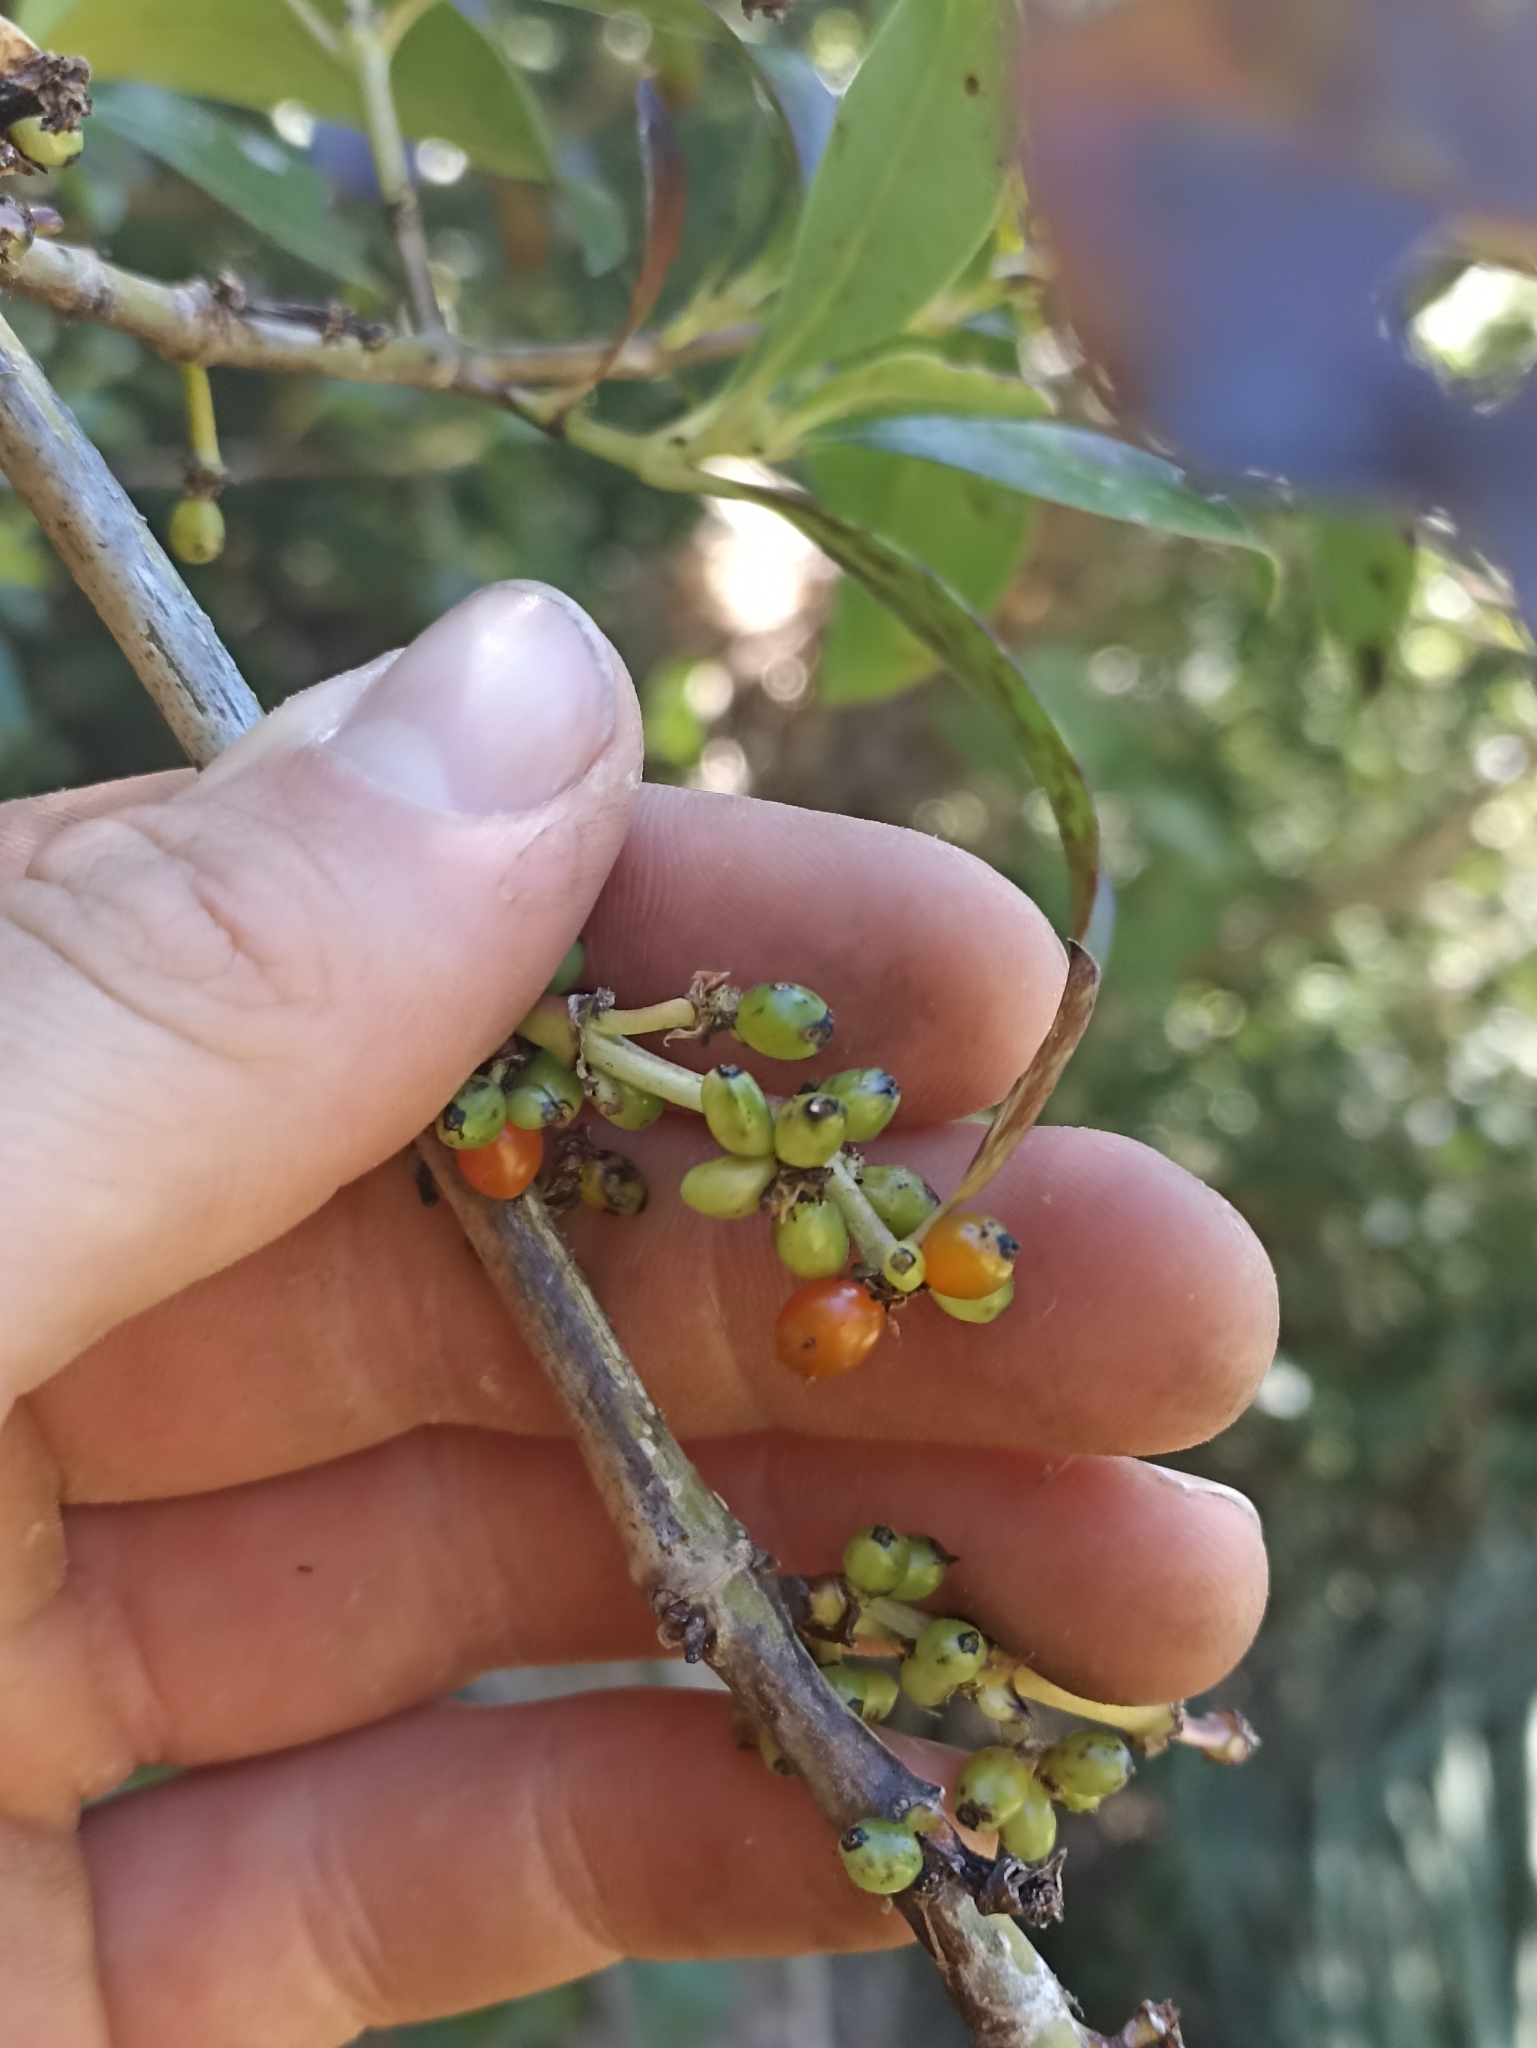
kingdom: Plantae
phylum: Tracheophyta
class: Magnoliopsida
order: Gentianales
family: Rubiaceae
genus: Coprosma
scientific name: Coprosma robusta
